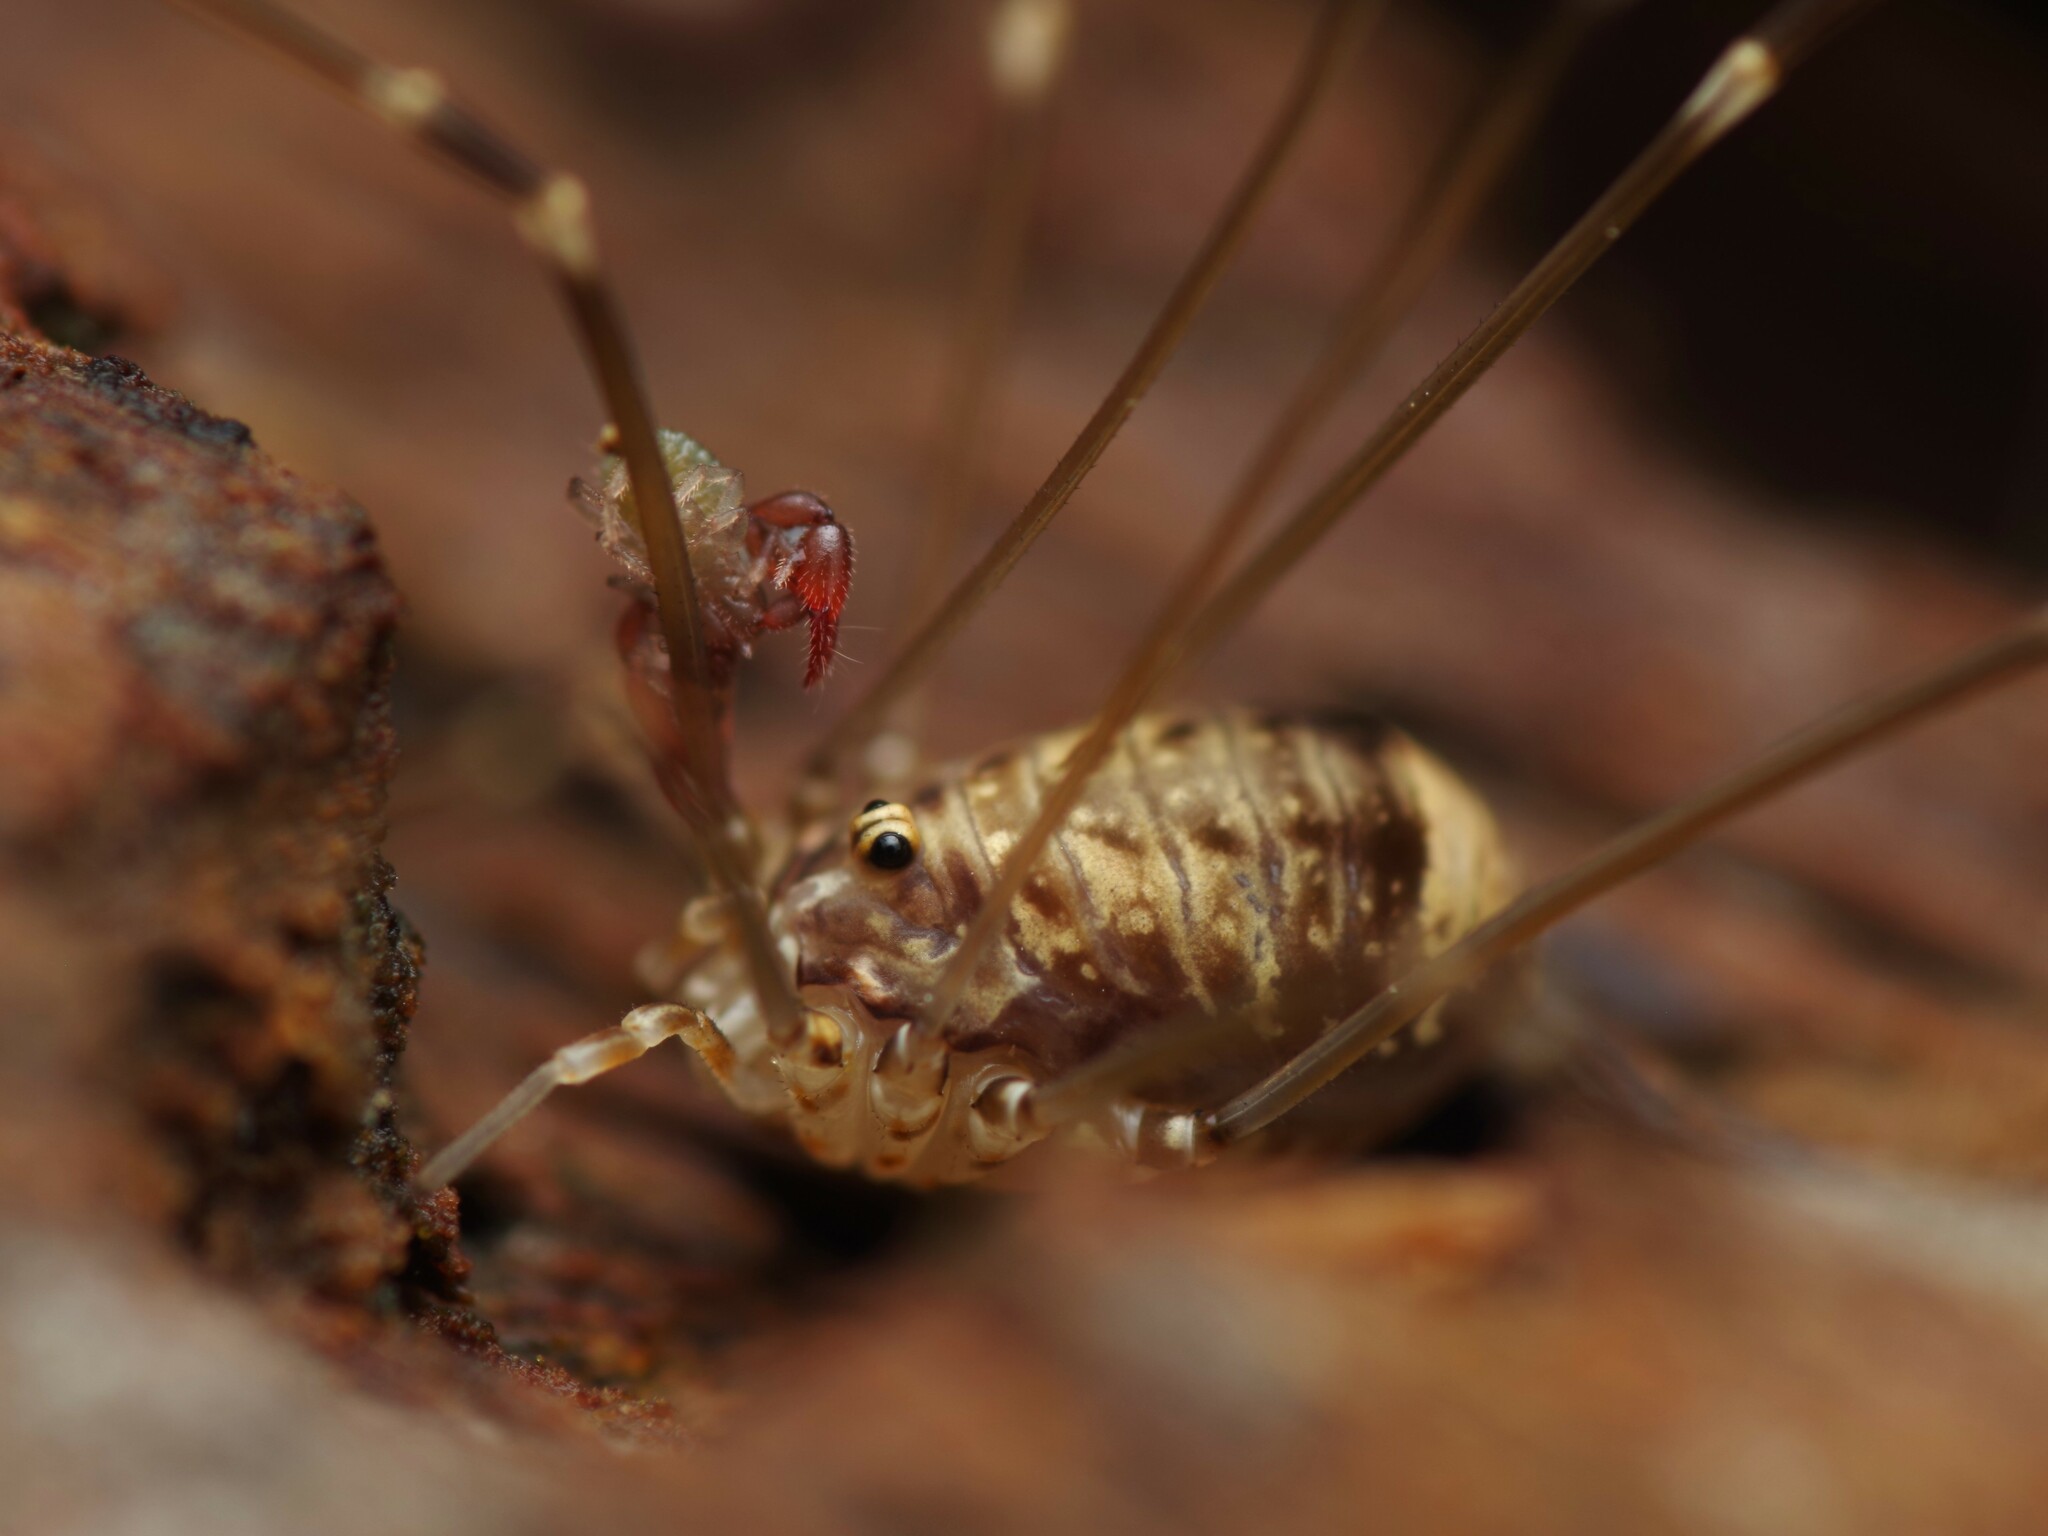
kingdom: Animalia
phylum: Arthropoda
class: Arachnida
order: Opiliones
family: Sclerosomatidae
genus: Leiobunum
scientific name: Leiobunum blackwalli
